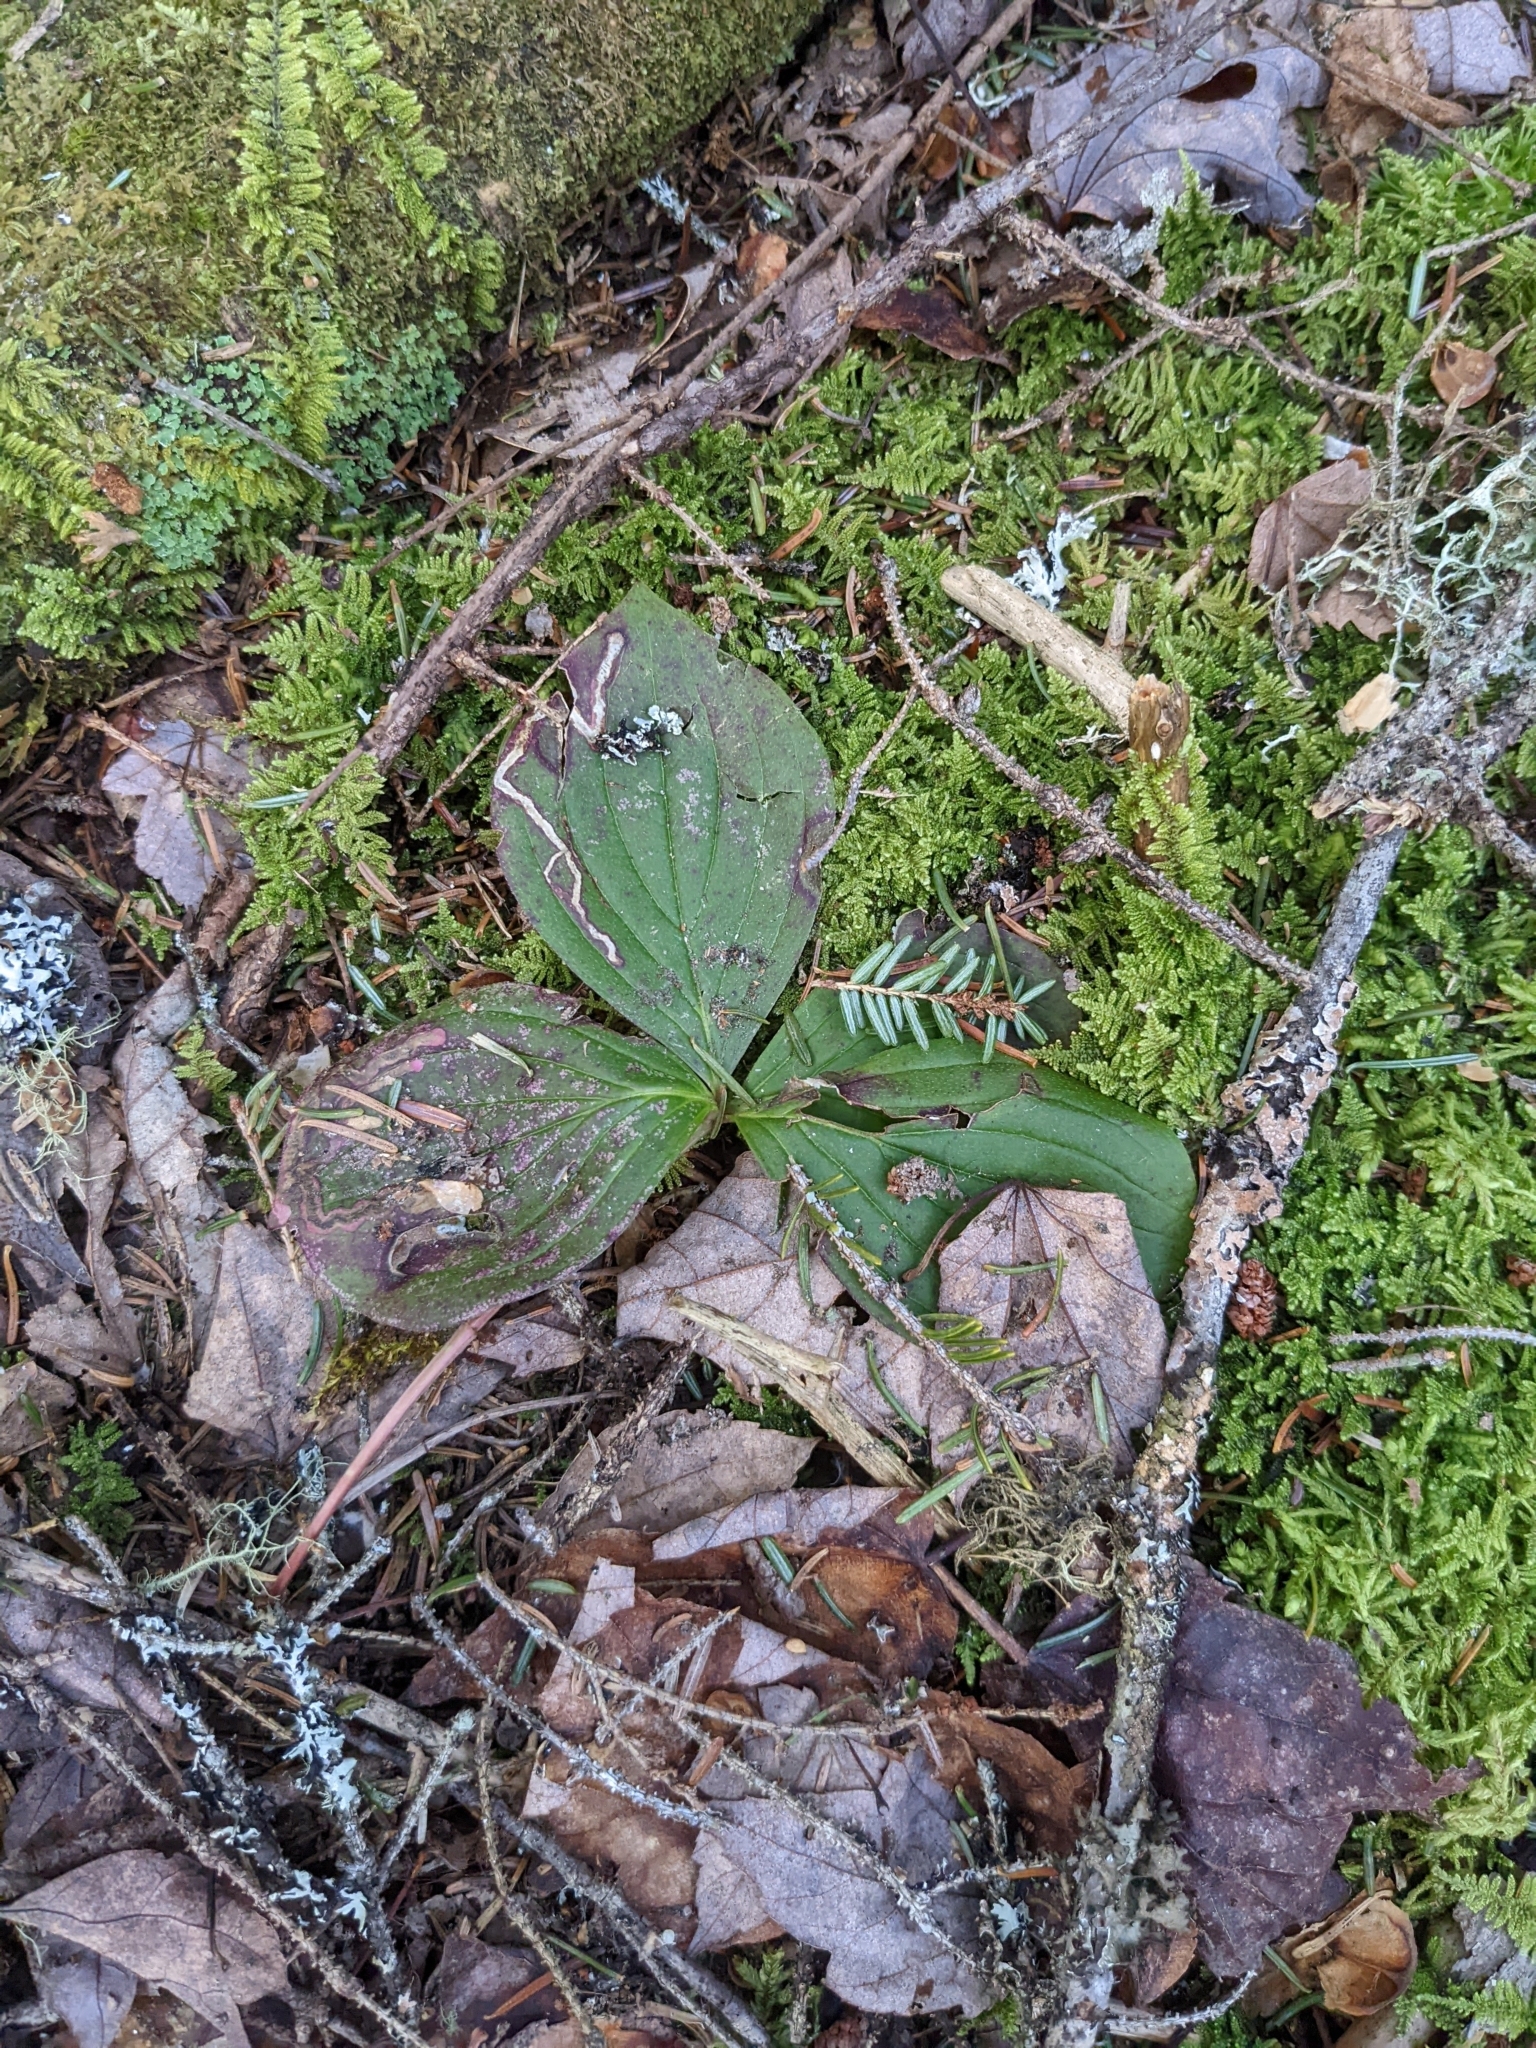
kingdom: Plantae
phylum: Tracheophyta
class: Magnoliopsida
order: Cornales
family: Cornaceae
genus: Cornus
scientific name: Cornus canadensis
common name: Creeping dogwood
